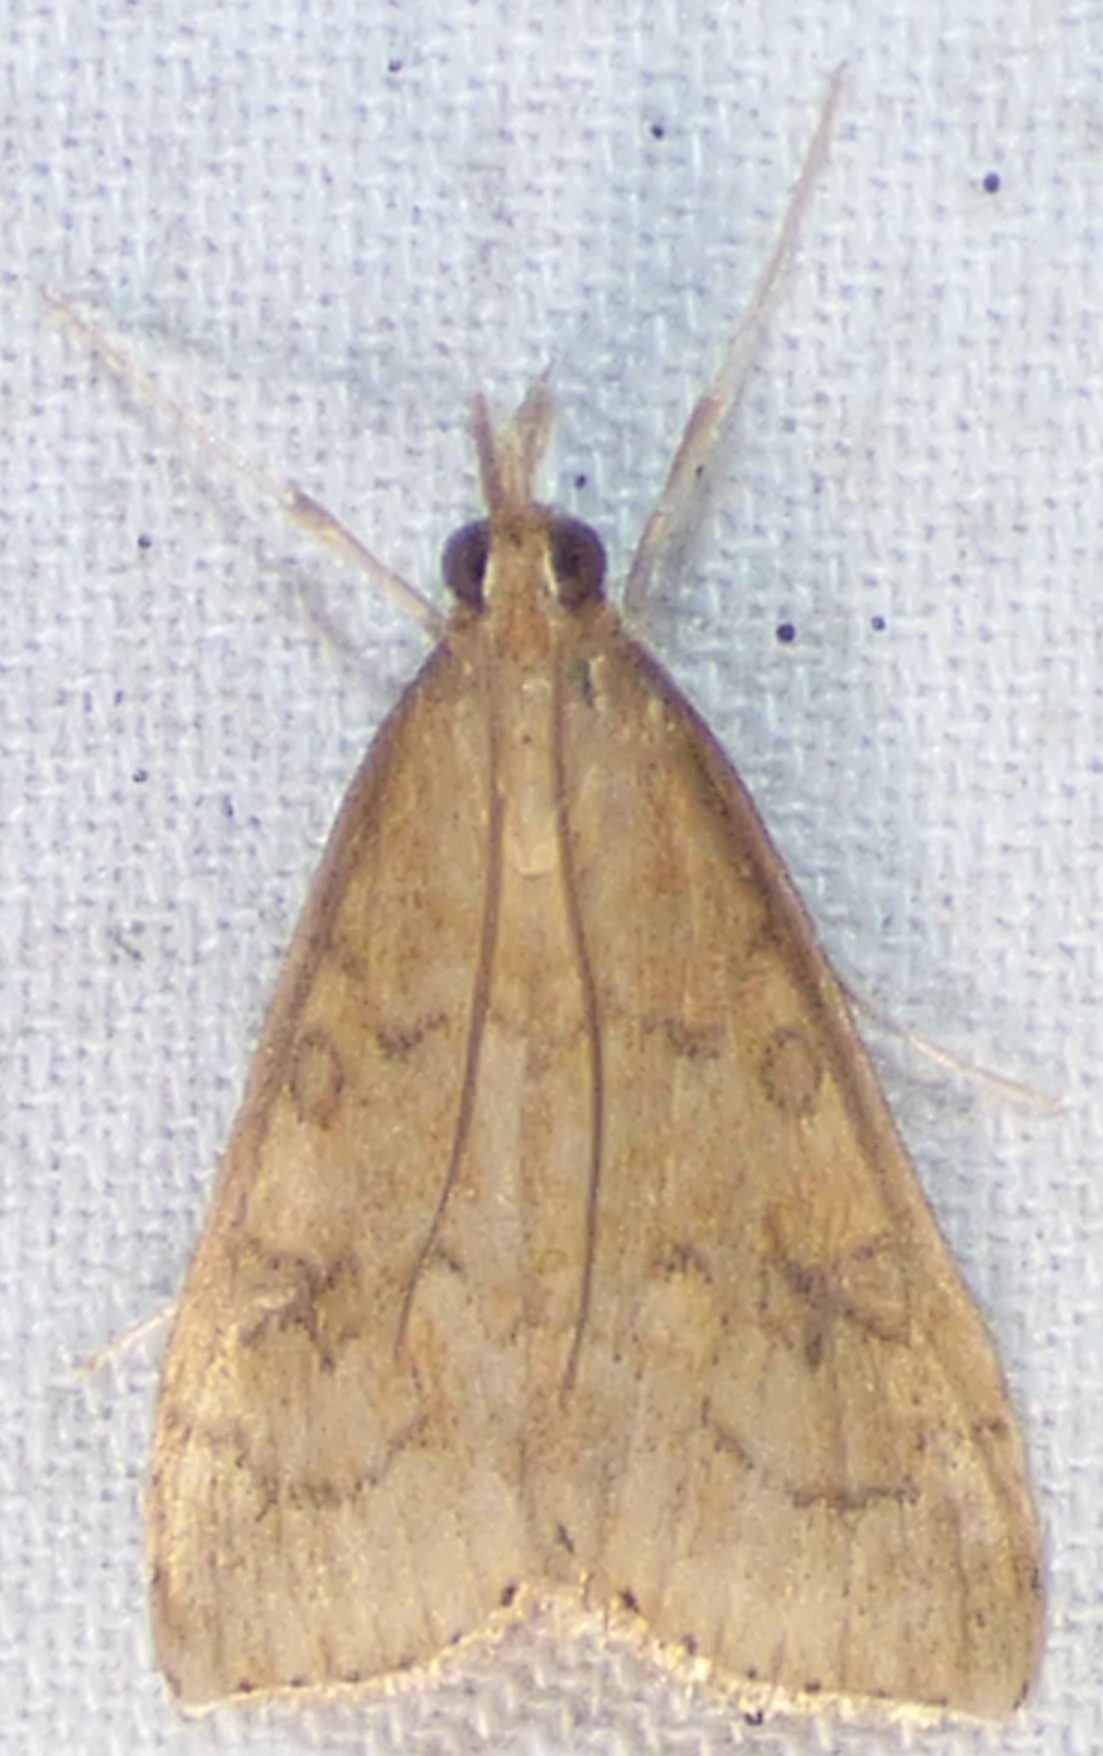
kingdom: Animalia
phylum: Arthropoda
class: Insecta
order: Lepidoptera
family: Crambidae
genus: Udea
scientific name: Udea rubigalis
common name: Celery leaftier moth
